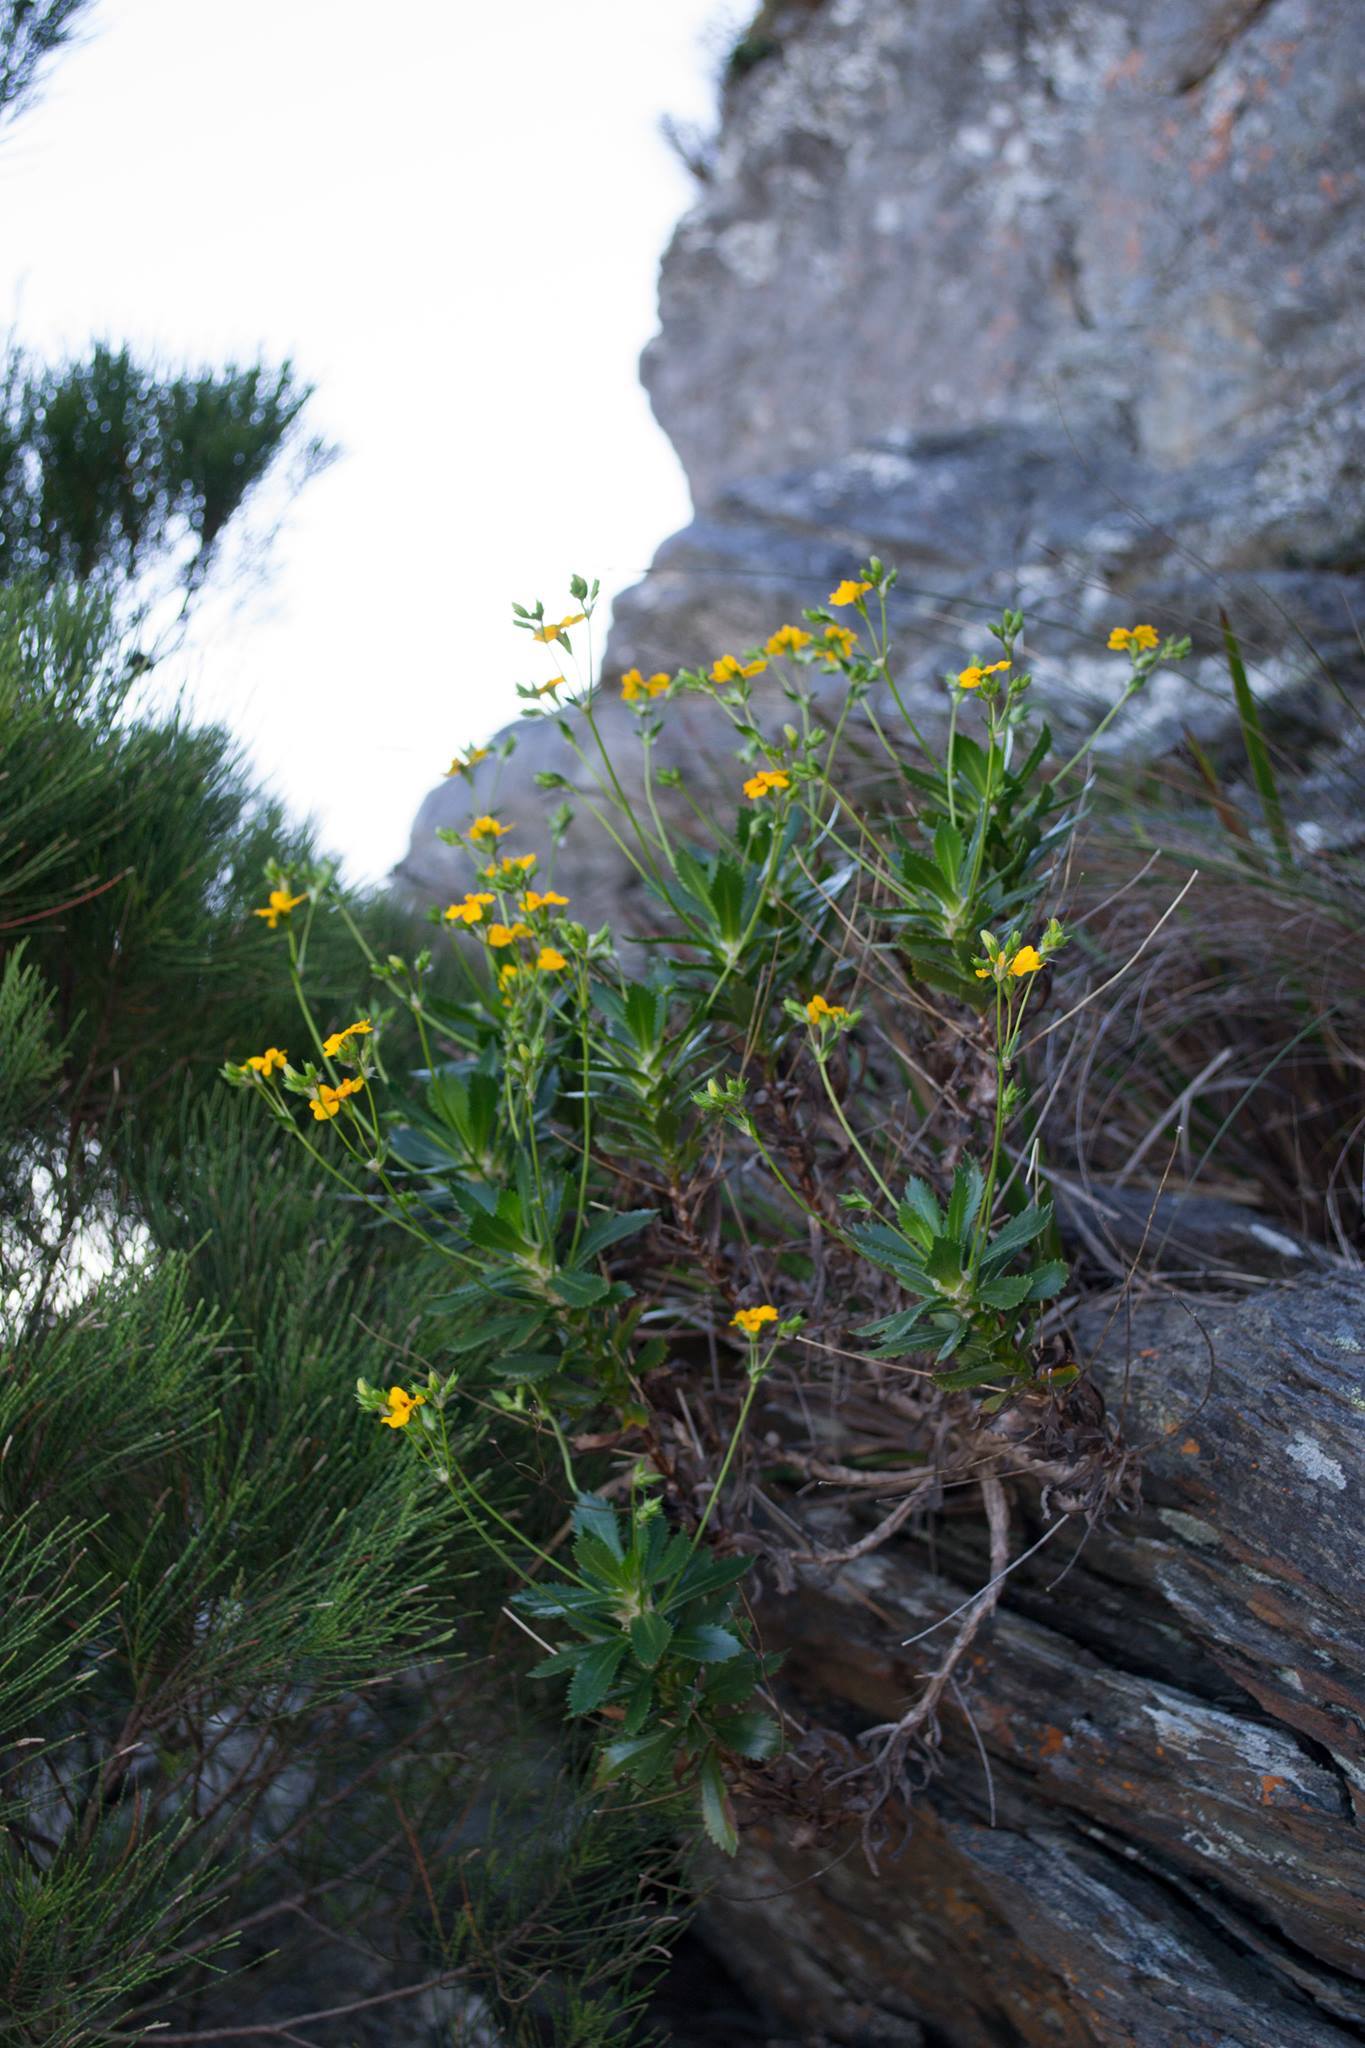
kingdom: Plantae
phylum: Tracheophyta
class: Magnoliopsida
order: Asterales
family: Goodeniaceae
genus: Goodenia
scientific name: Goodenia brendannarum
